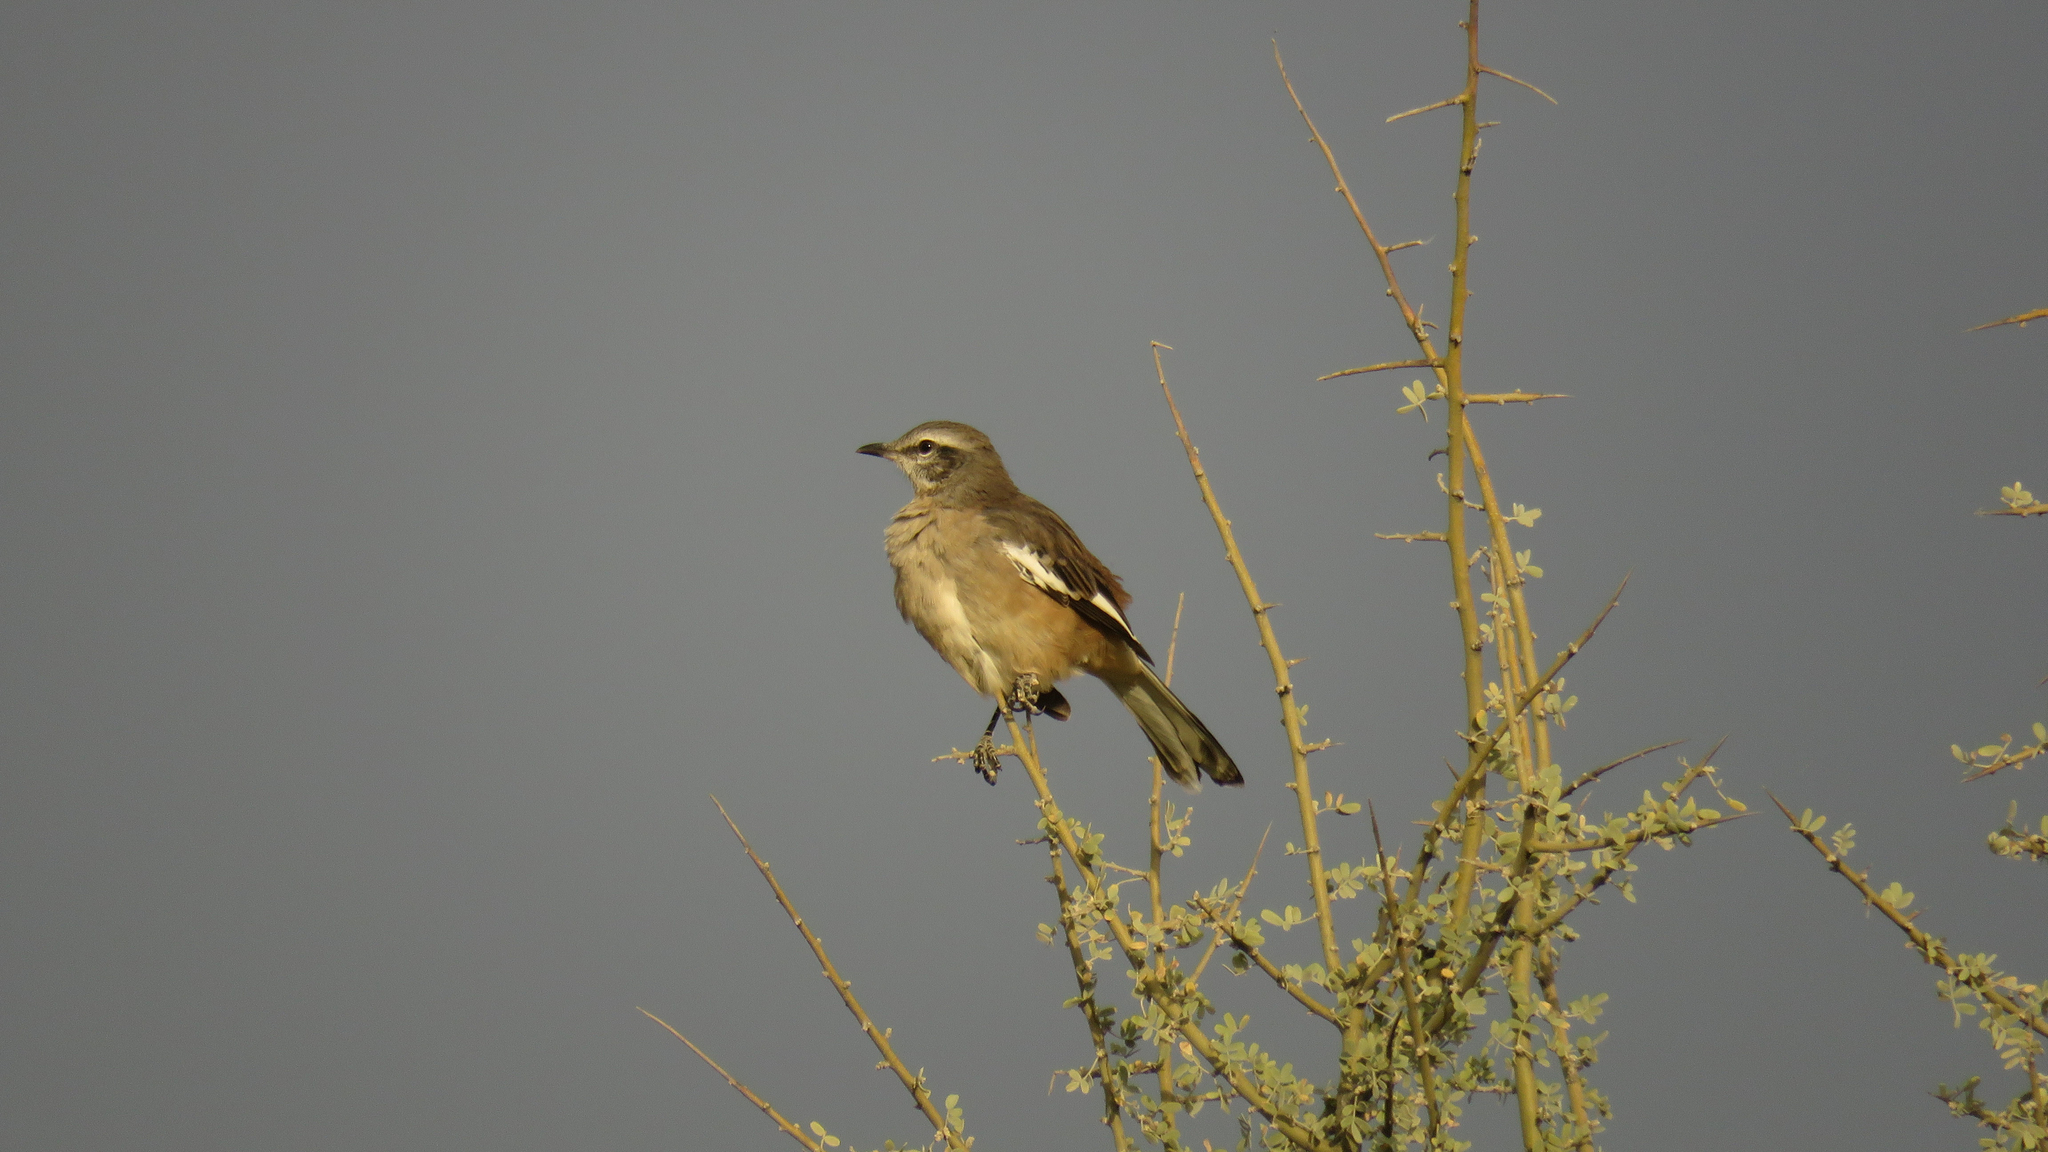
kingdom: Animalia
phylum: Chordata
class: Aves
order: Passeriformes
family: Mimidae
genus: Mimus
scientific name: Mimus triurus
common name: White-banded mockingbird
